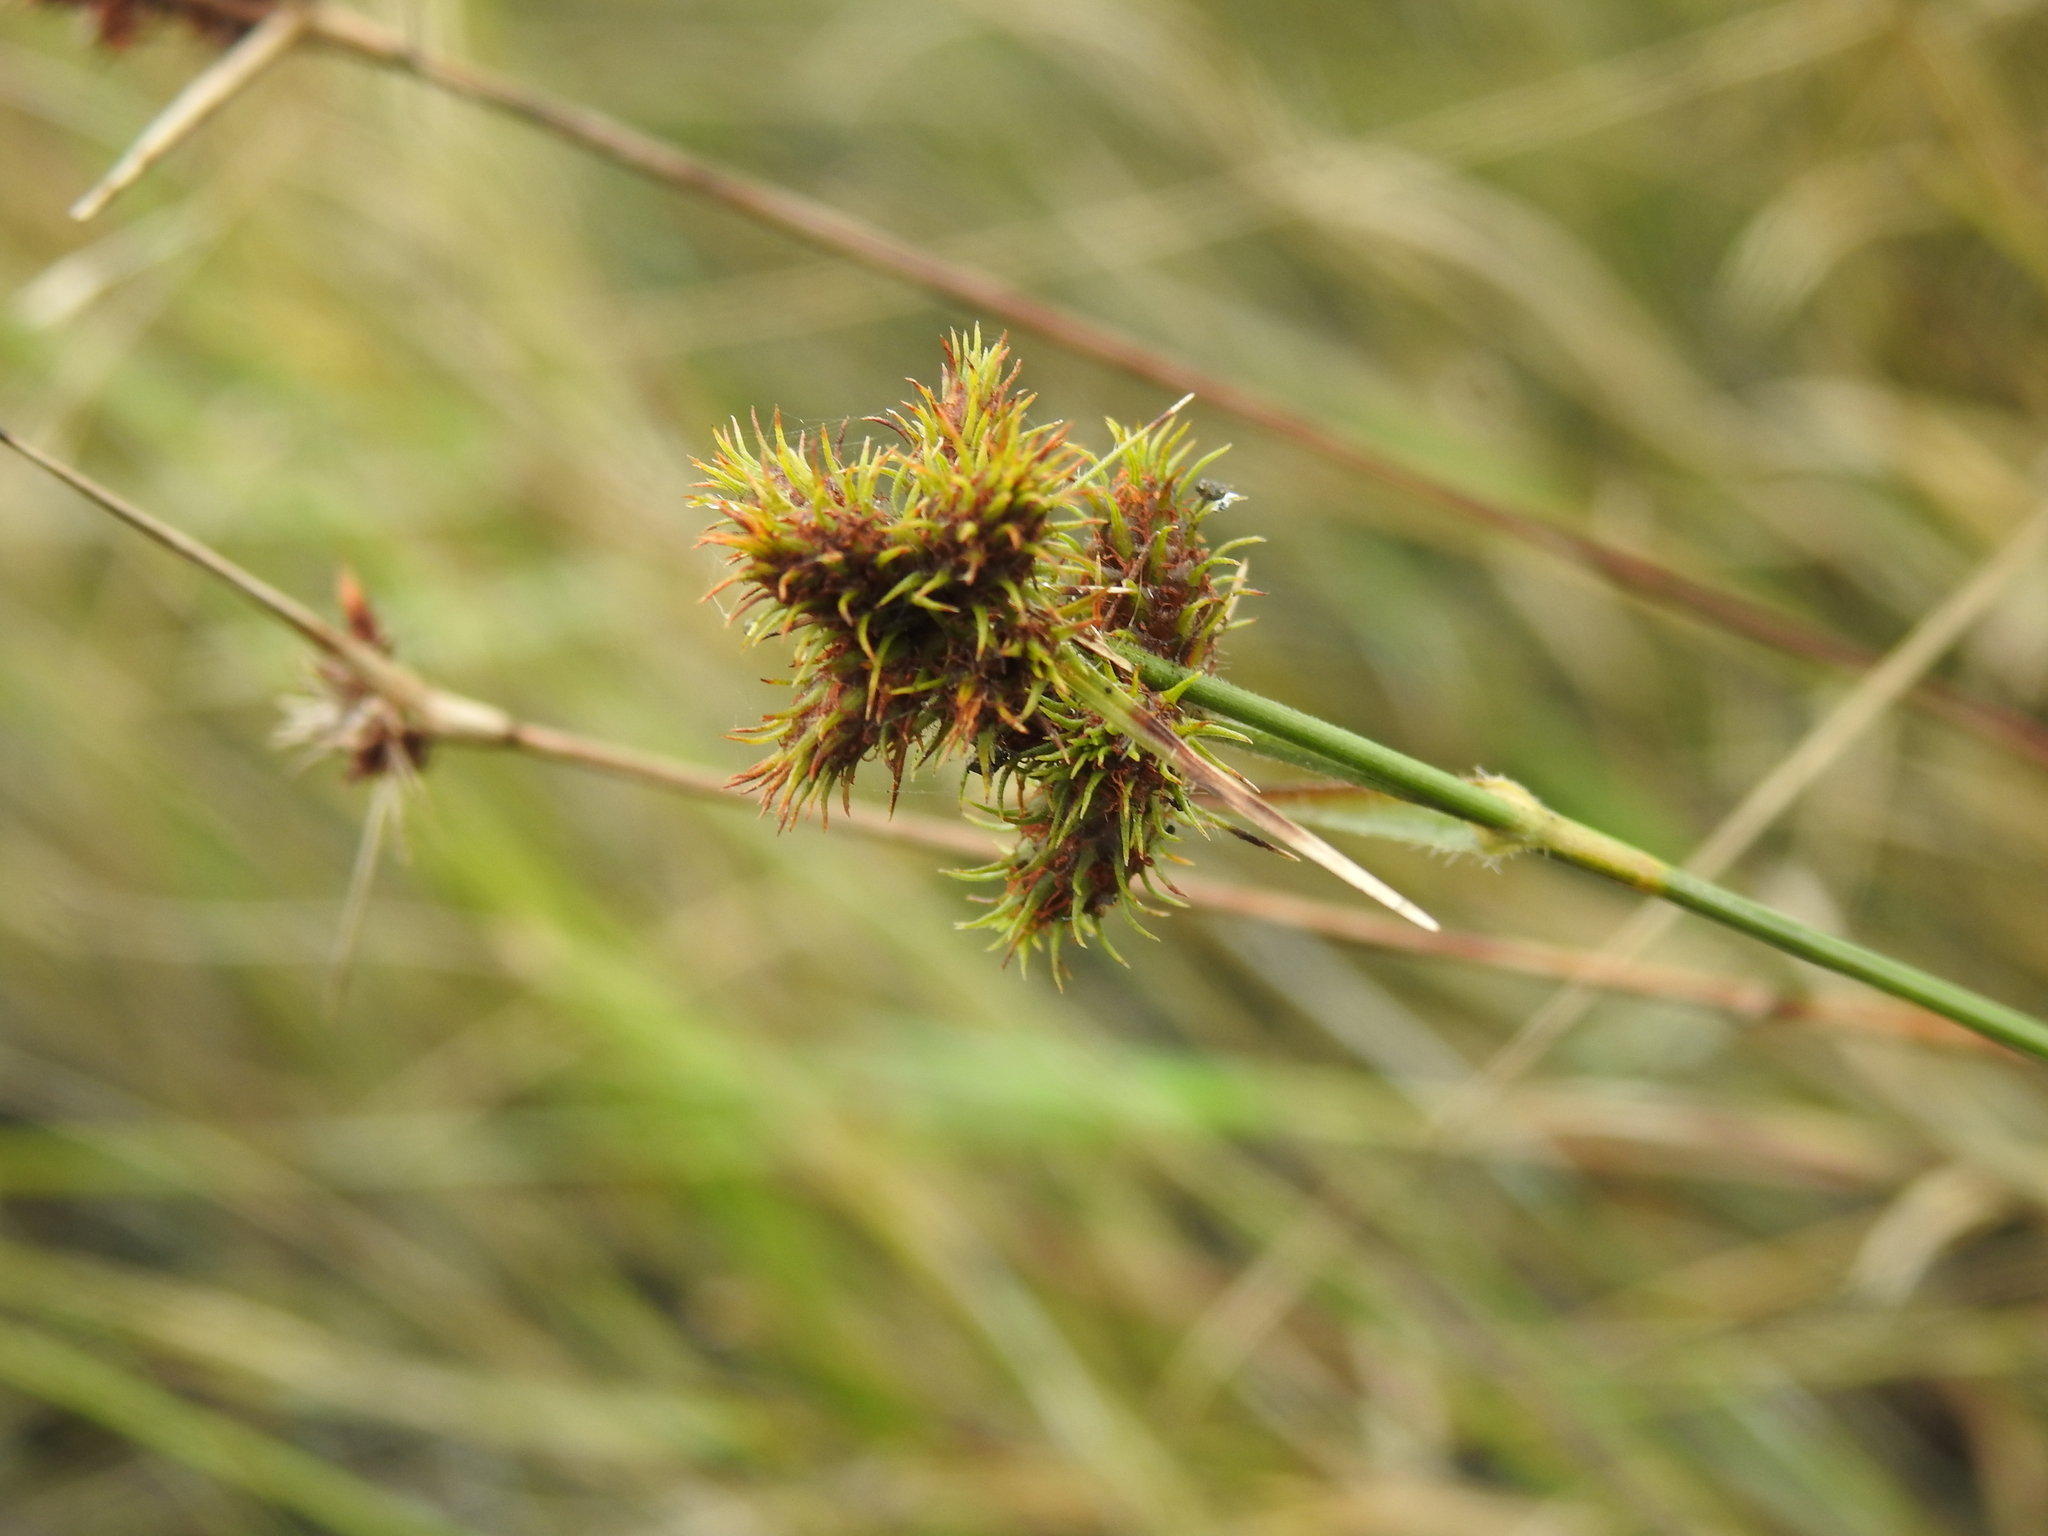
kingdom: Plantae
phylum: Tracheophyta
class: Liliopsida
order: Poales
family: Cyperaceae
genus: Fuirena
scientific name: Fuirena breviseta
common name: Saltmarsh umbrella sedge
